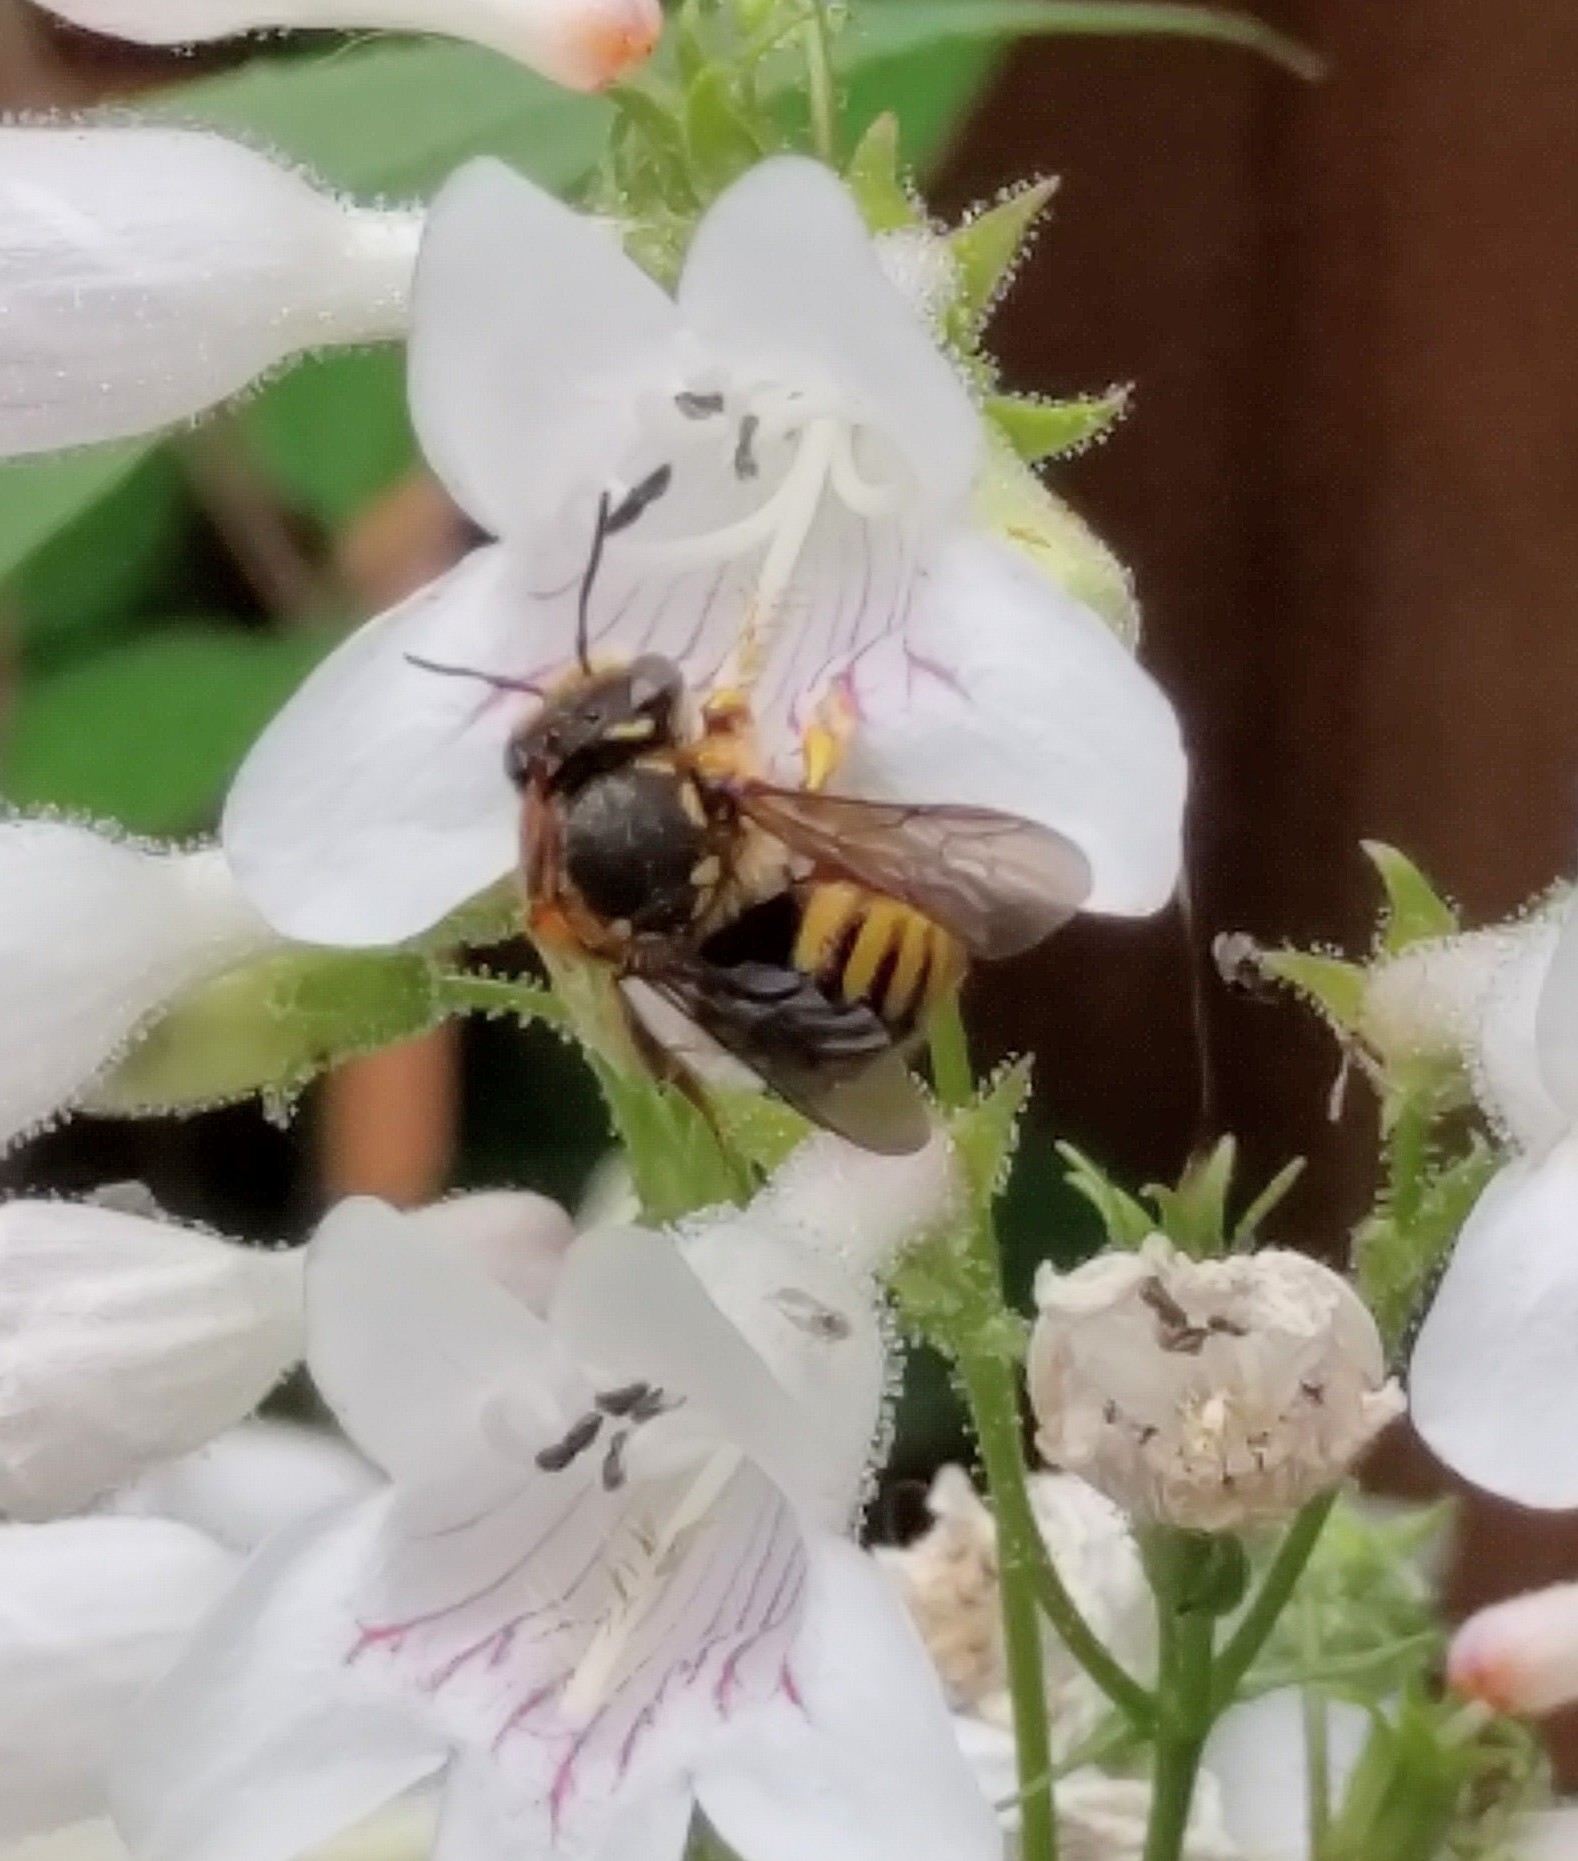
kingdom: Animalia
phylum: Arthropoda
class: Insecta
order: Hymenoptera
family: Megachilidae
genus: Anthidium
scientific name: Anthidium manicatum
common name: Wool carder bee
